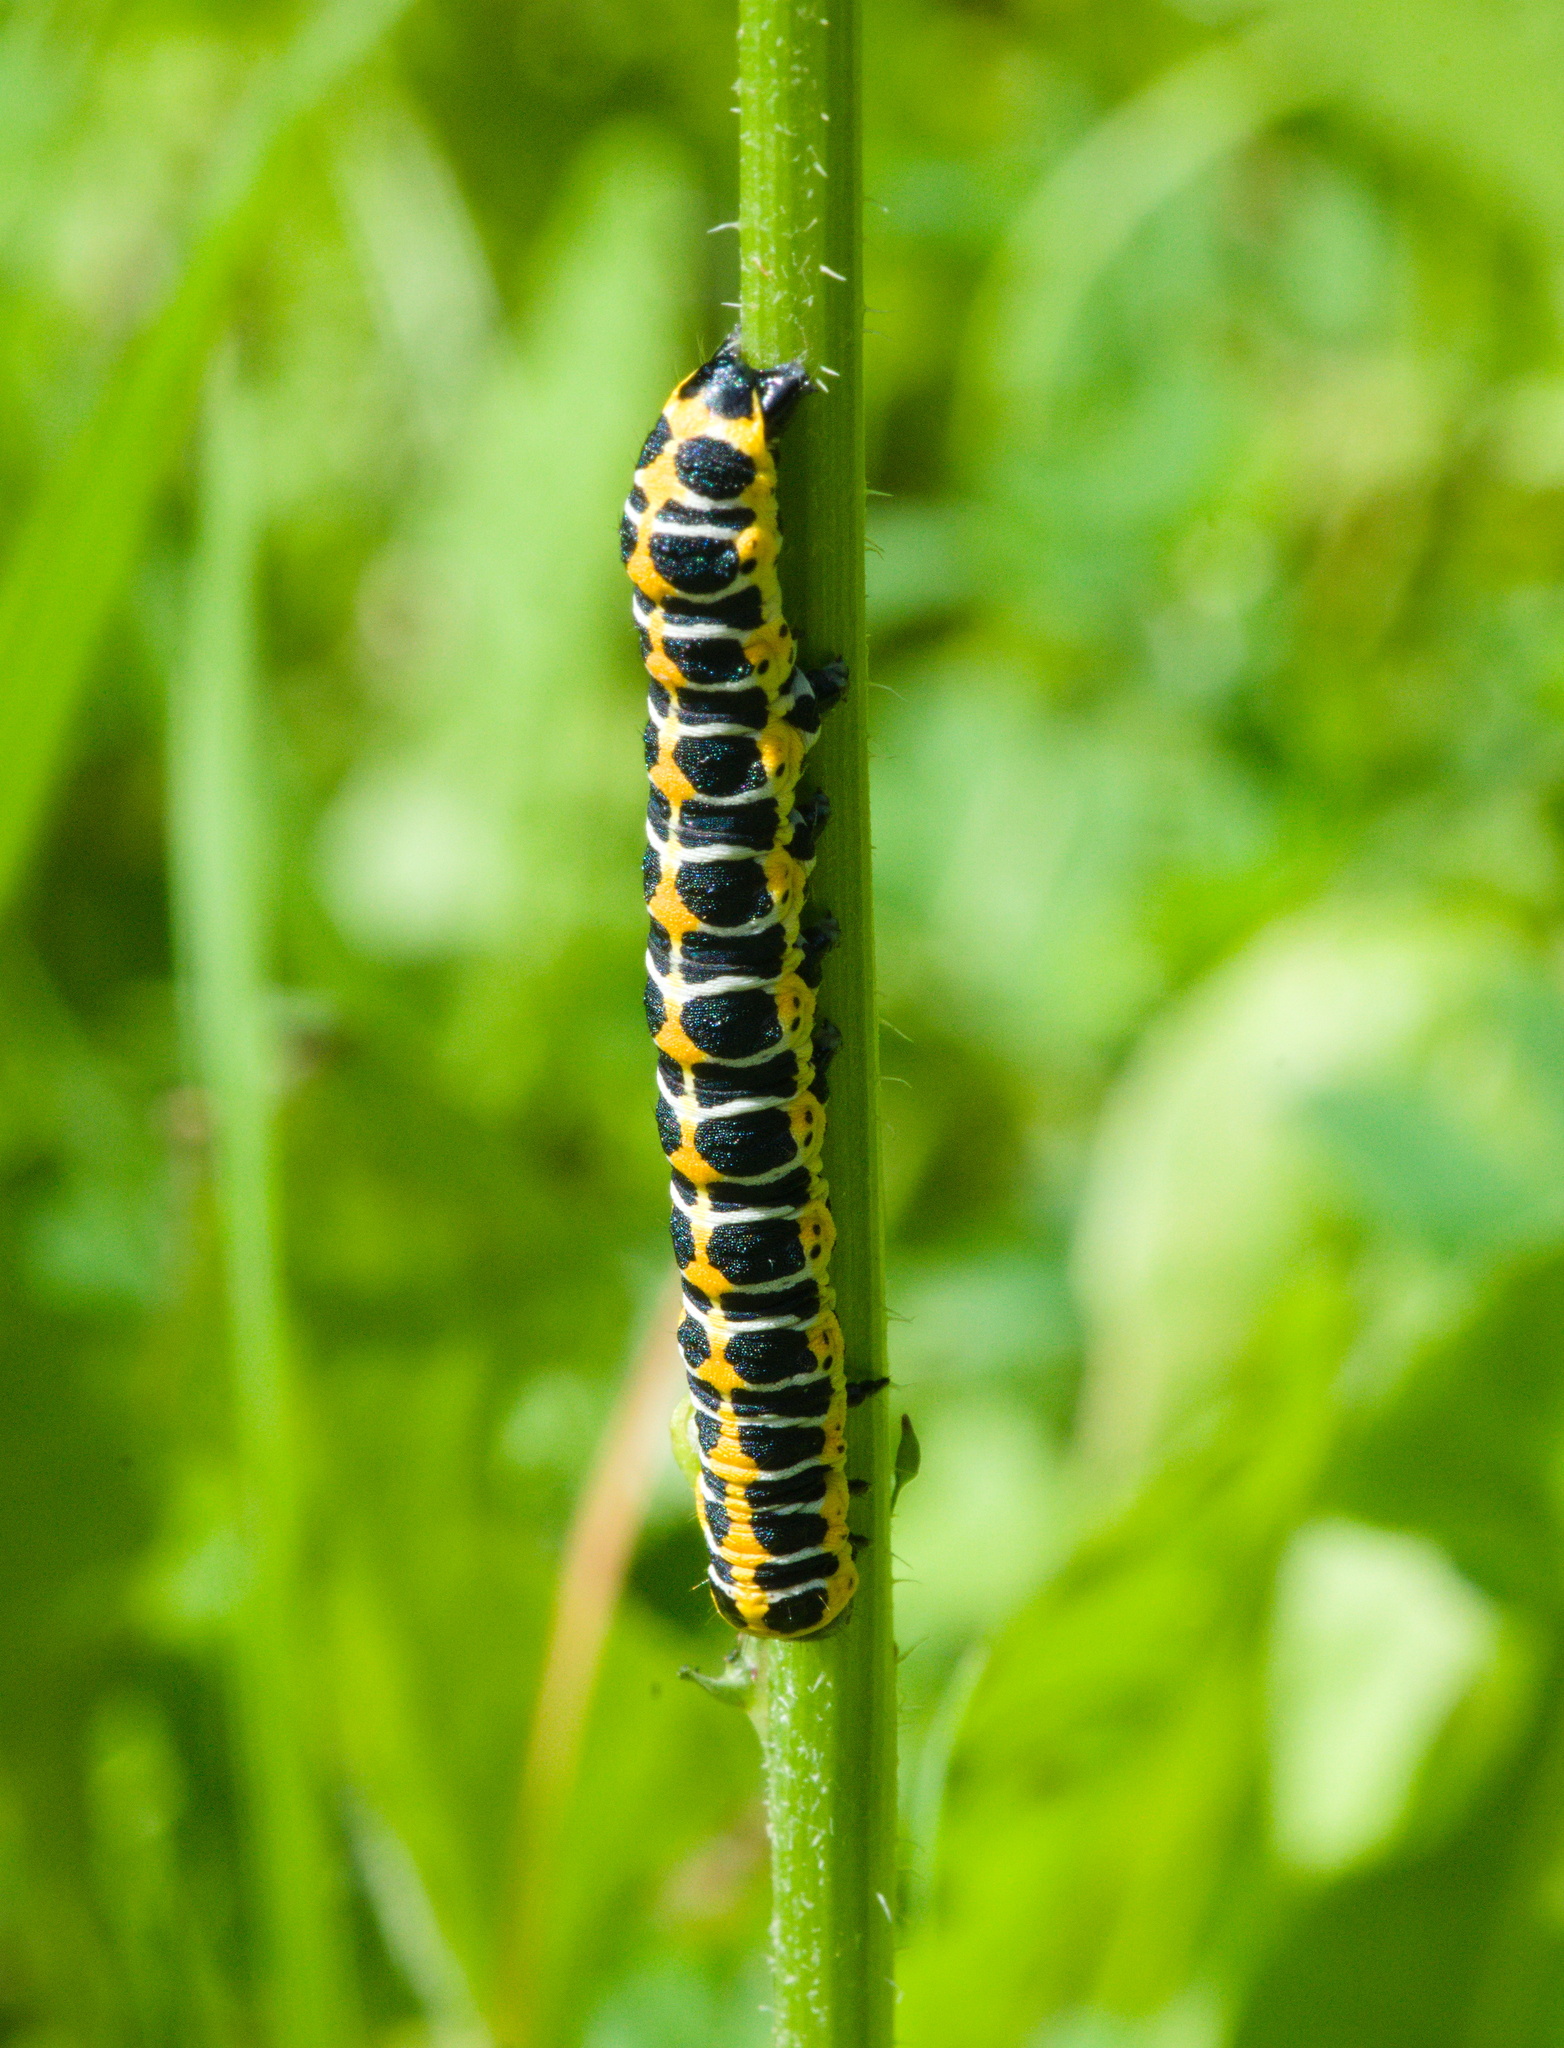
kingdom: Animalia
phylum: Arthropoda
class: Insecta
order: Lepidoptera
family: Noctuidae
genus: Cucullia
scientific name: Cucullia lactucae
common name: Lettuce shark
